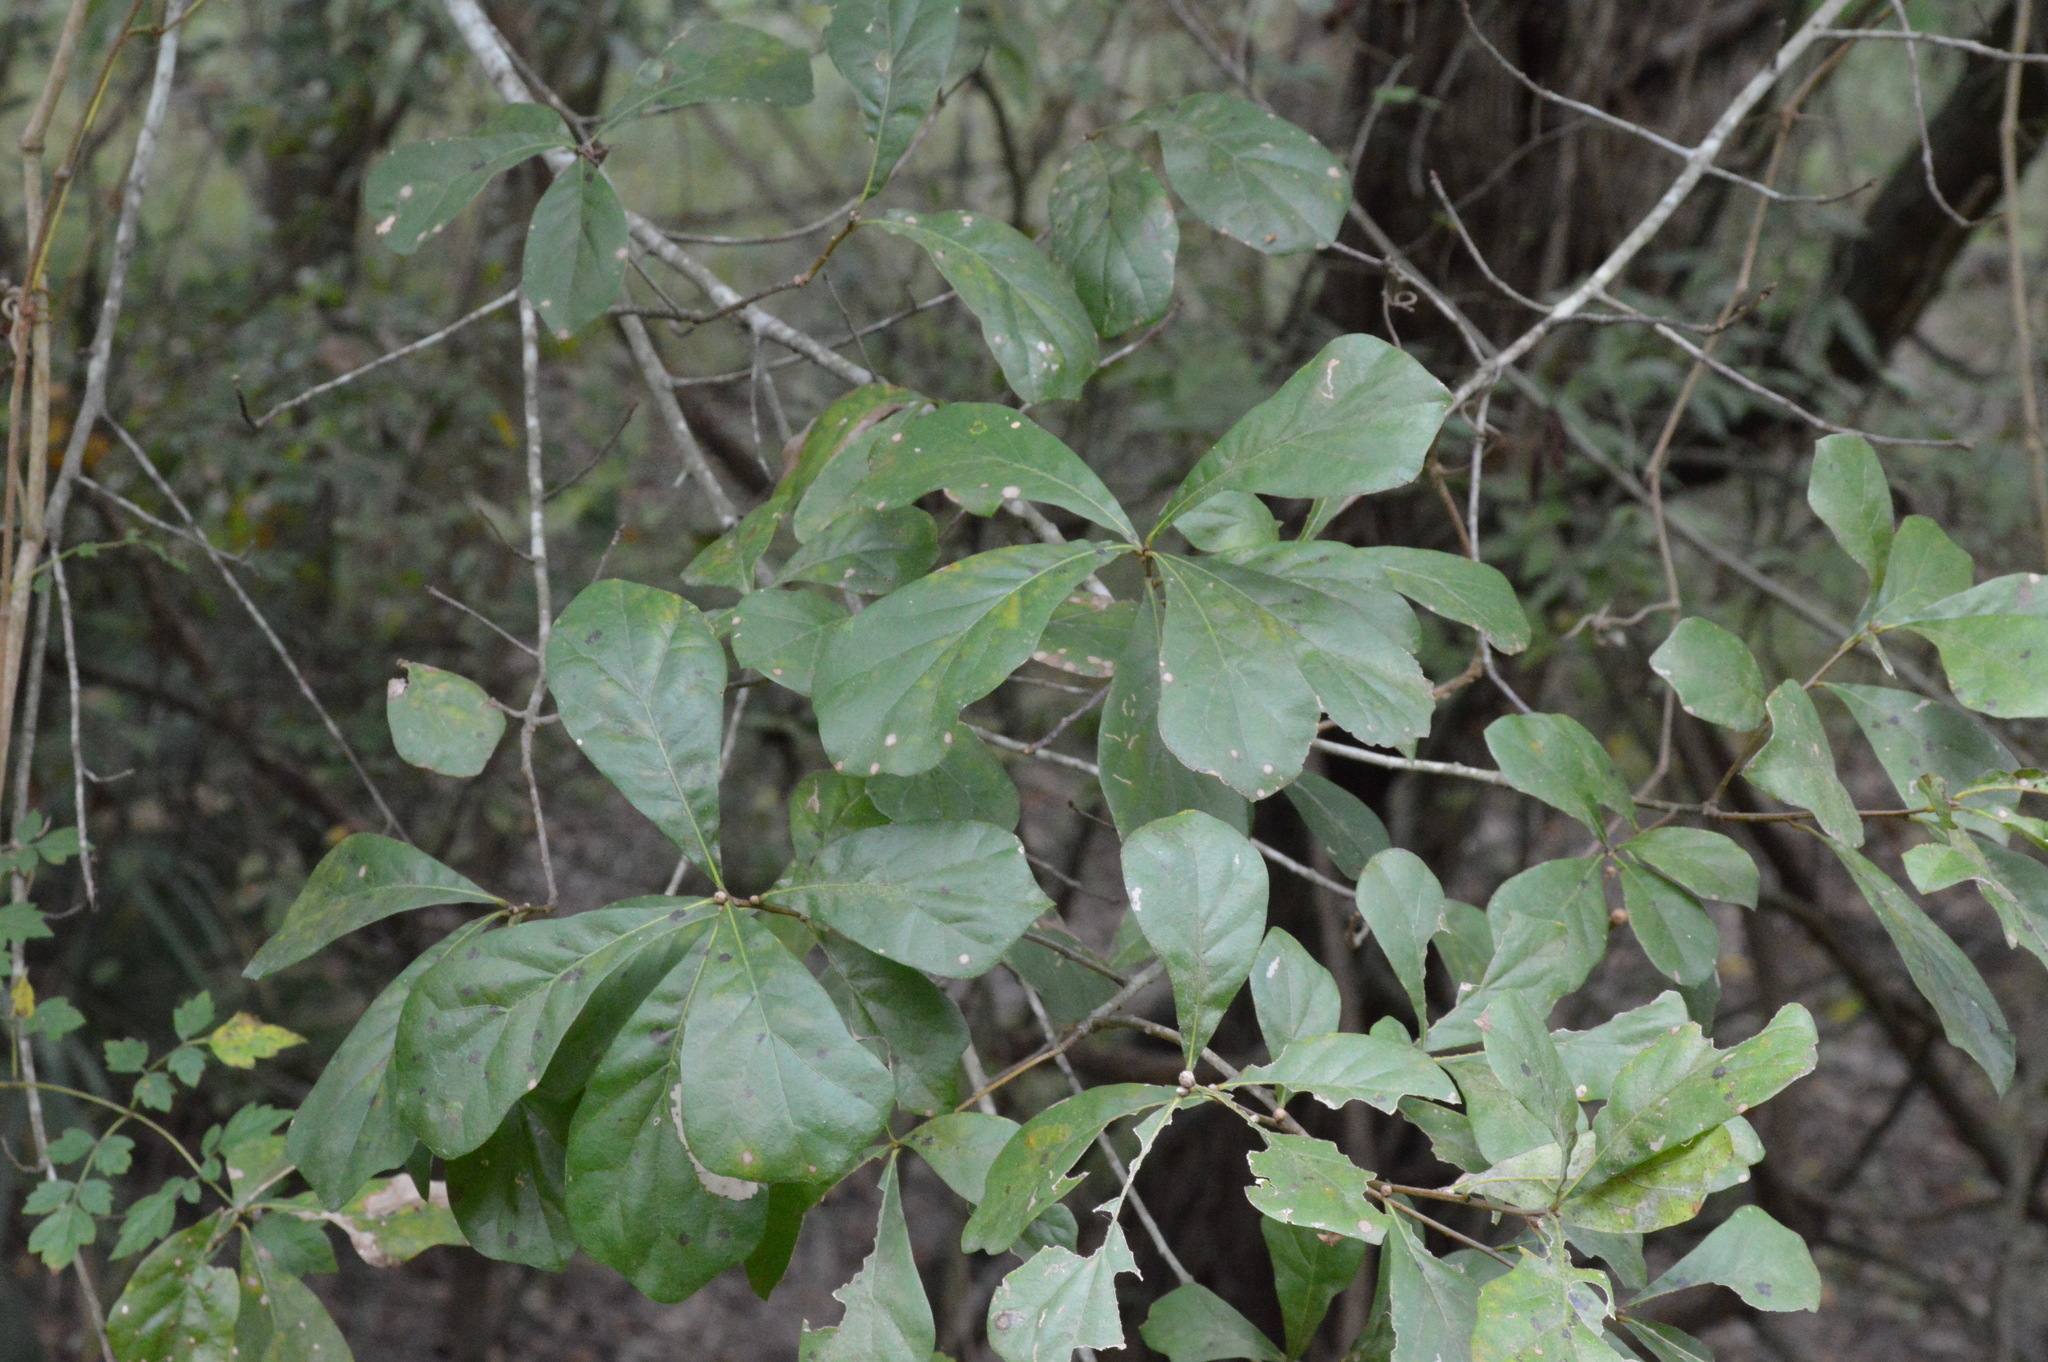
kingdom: Plantae
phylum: Tracheophyta
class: Magnoliopsida
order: Fagales
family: Fagaceae
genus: Quercus
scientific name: Quercus nigra
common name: Water oak
